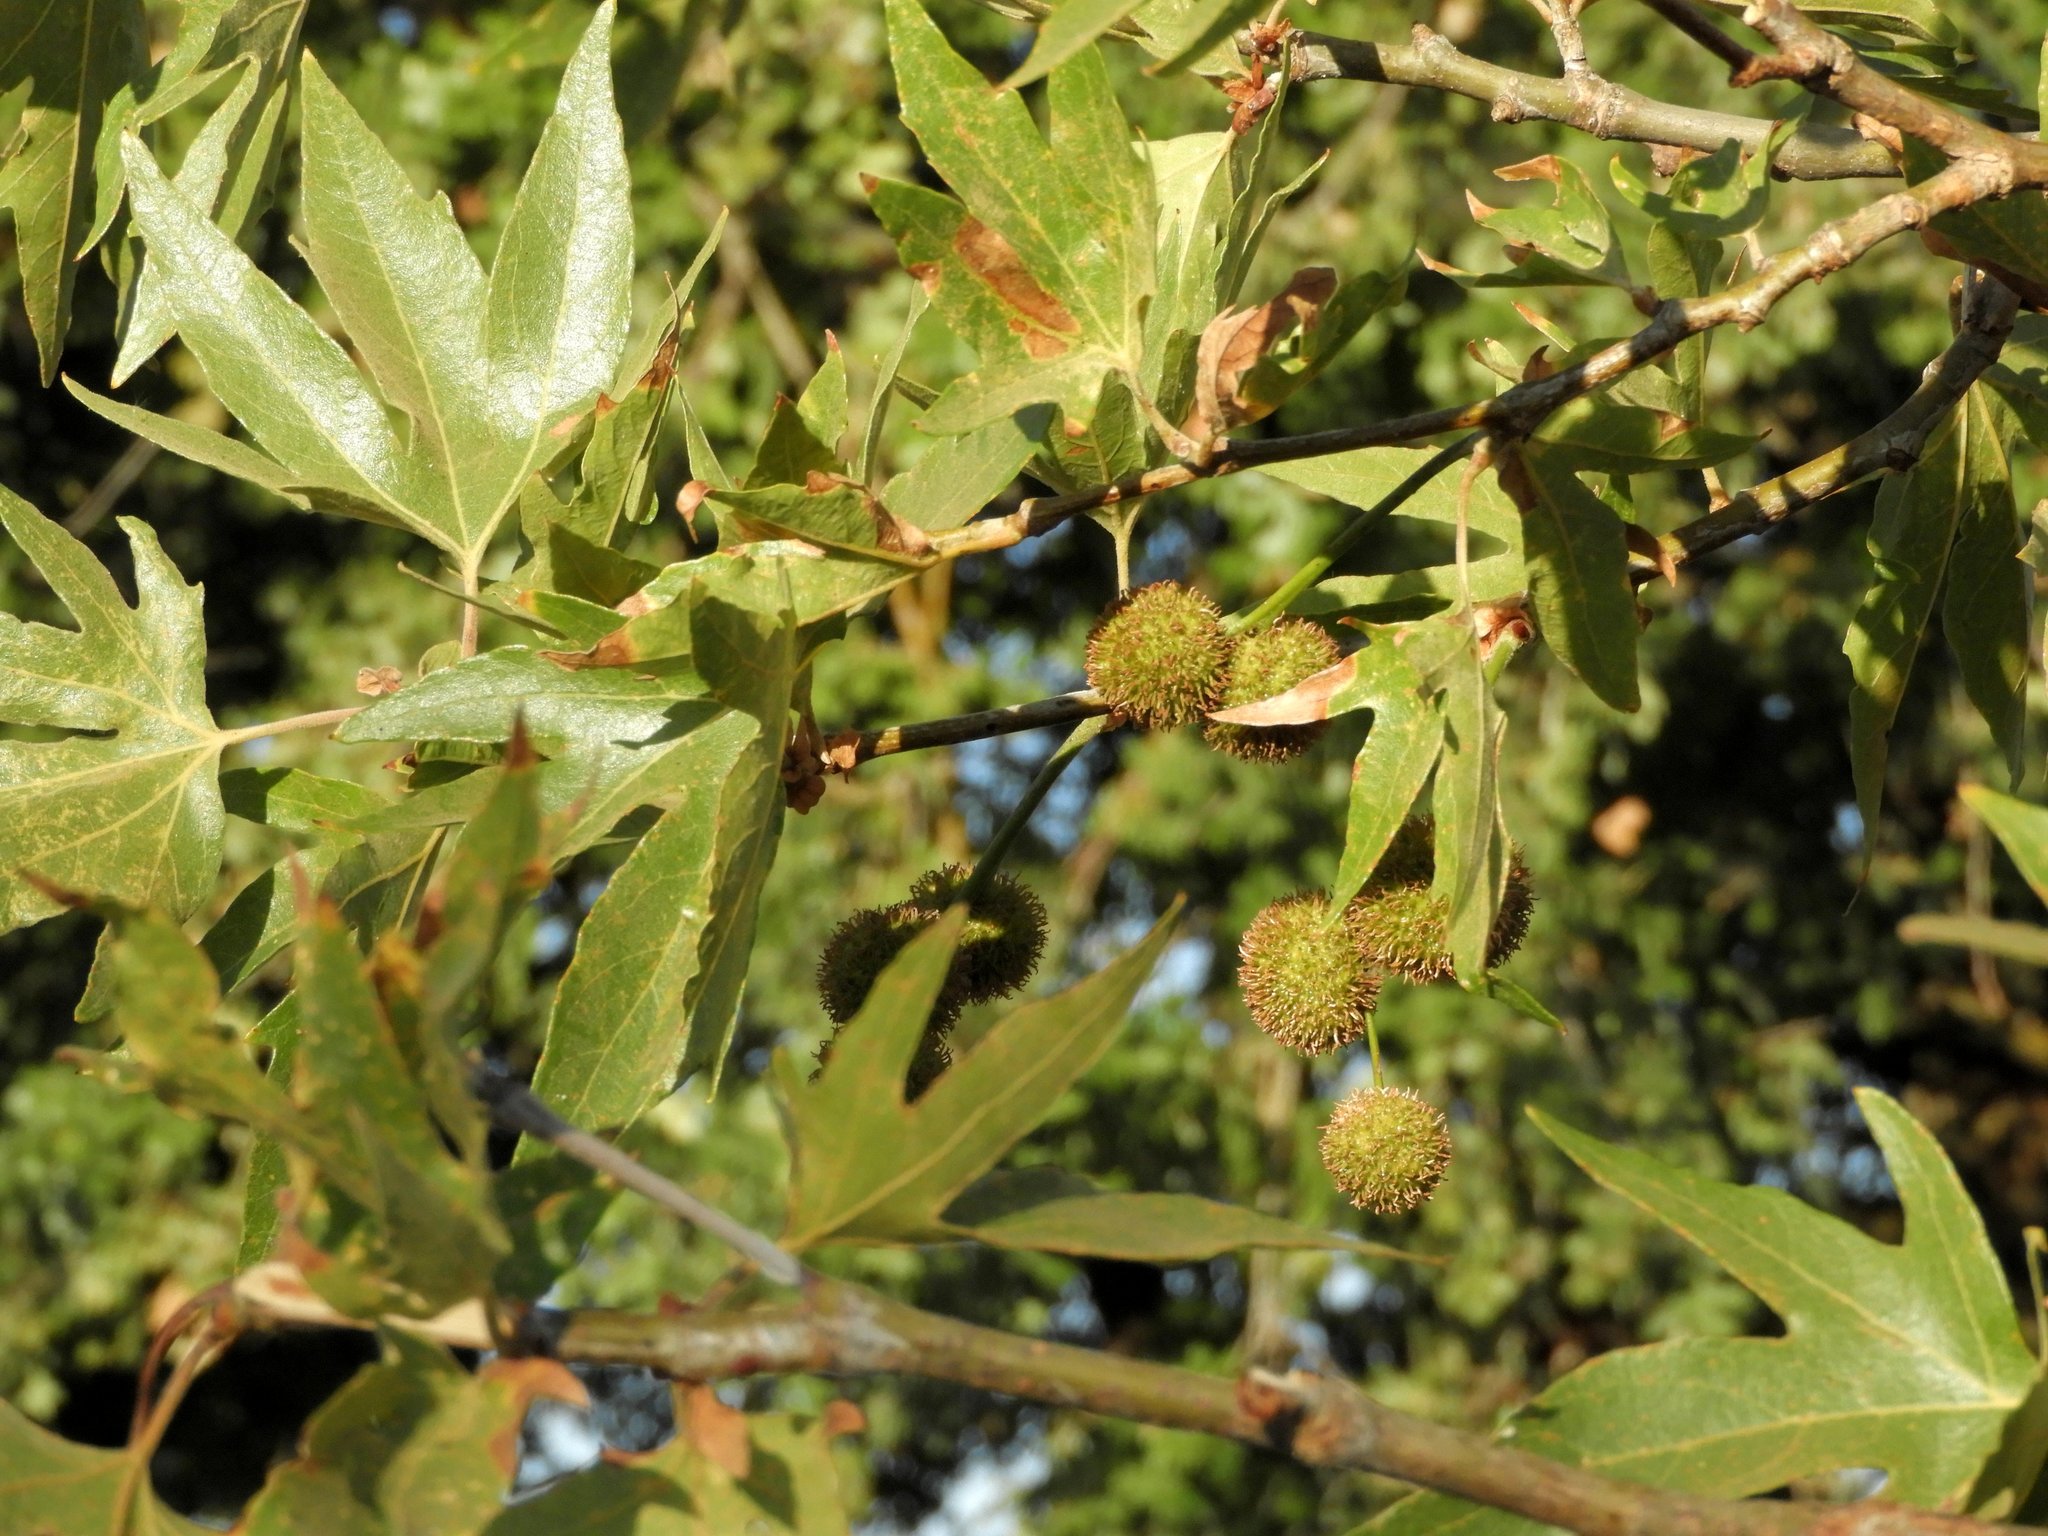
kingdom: Plantae
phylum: Tracheophyta
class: Magnoliopsida
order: Proteales
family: Platanaceae
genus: Platanus
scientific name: Platanus racemosa
